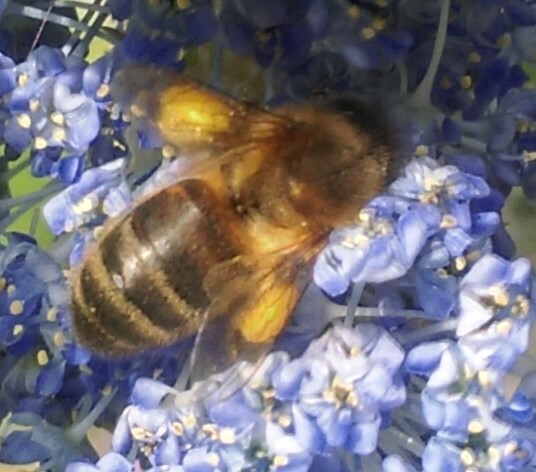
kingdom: Animalia
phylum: Arthropoda
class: Insecta
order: Hymenoptera
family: Apidae
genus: Apis
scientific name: Apis mellifera
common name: Honey bee
